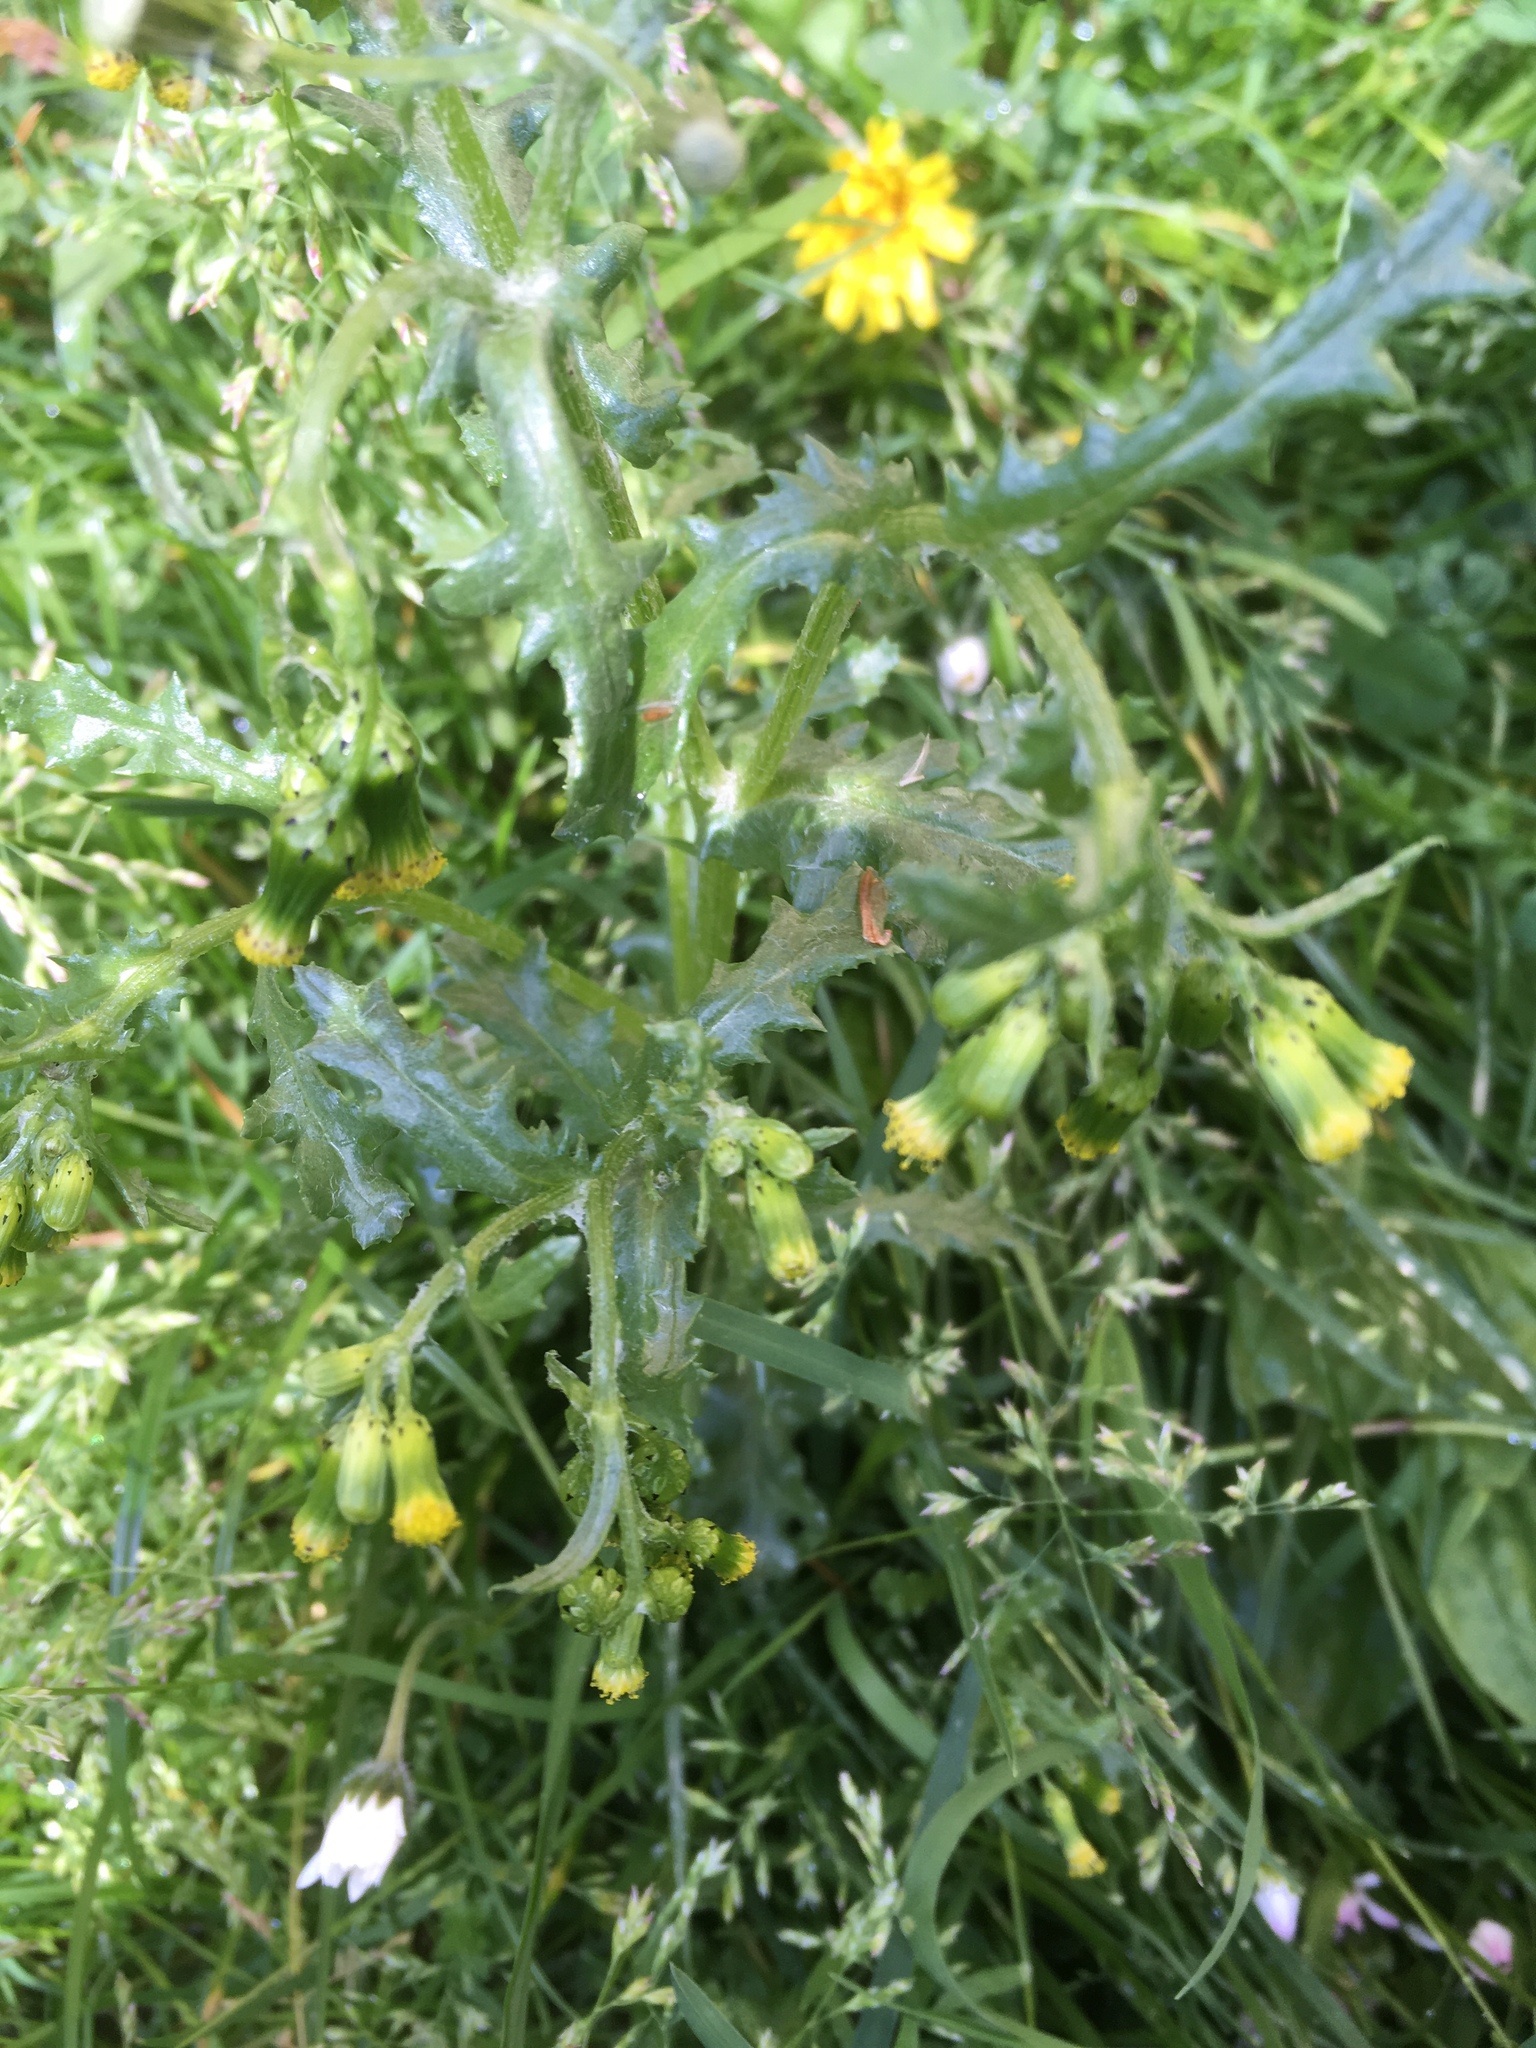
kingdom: Plantae
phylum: Tracheophyta
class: Magnoliopsida
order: Asterales
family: Asteraceae
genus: Senecio
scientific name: Senecio vulgaris
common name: Old-man-in-the-spring
